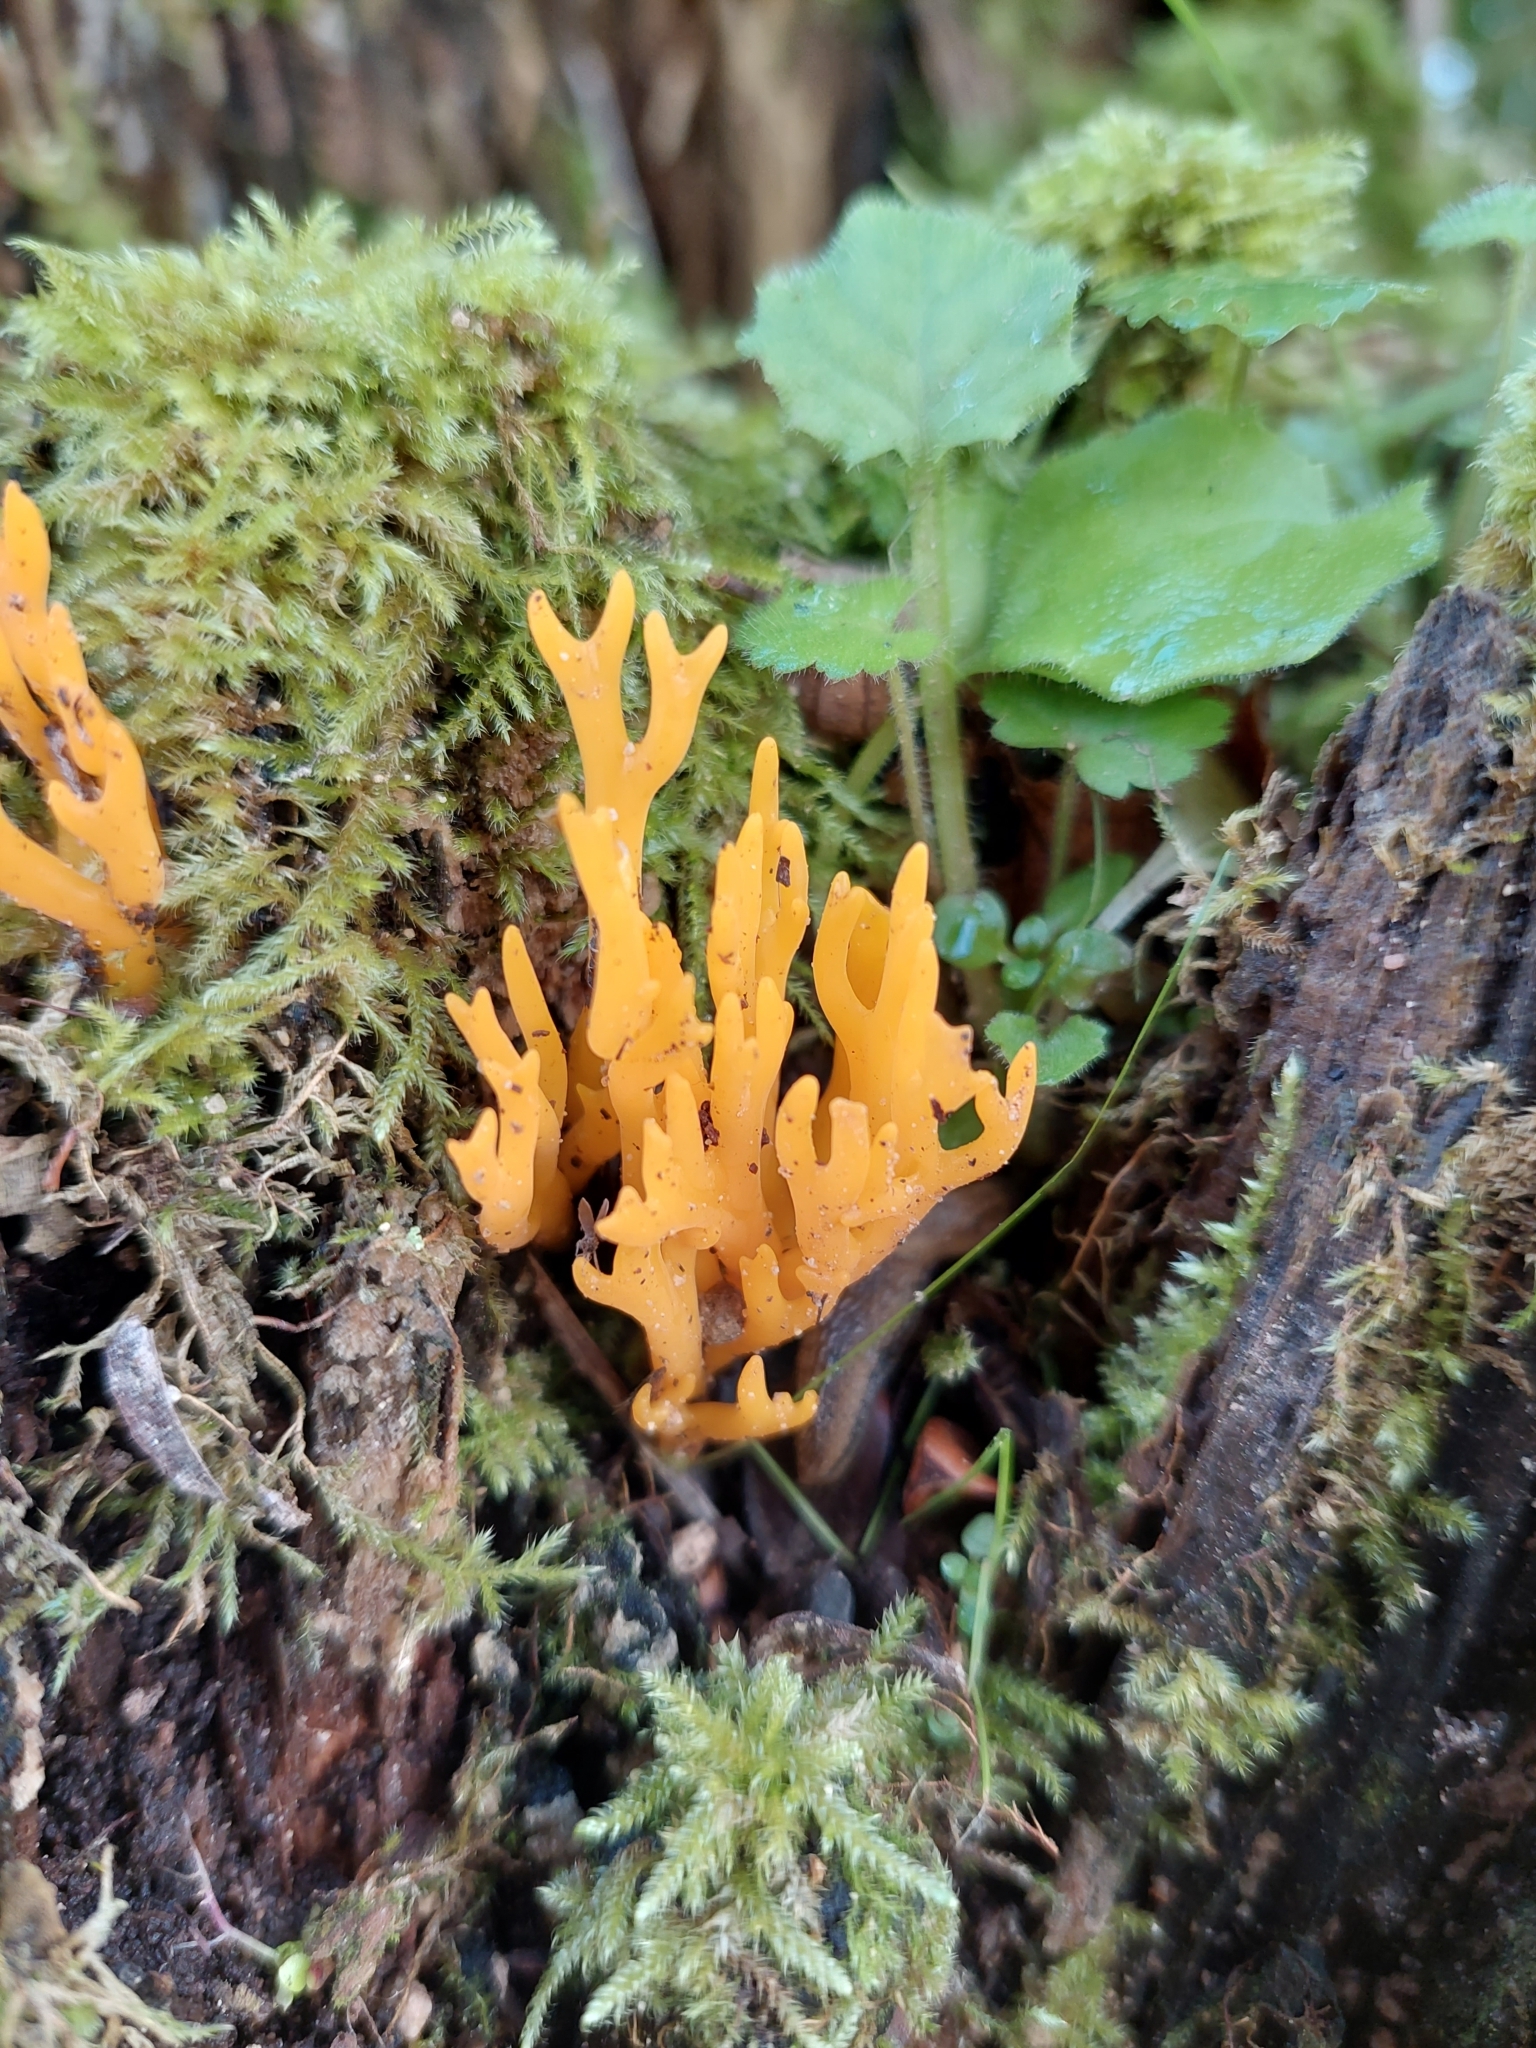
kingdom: Fungi
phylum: Basidiomycota
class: Dacrymycetes
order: Dacrymycetales
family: Dacrymycetaceae
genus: Calocera
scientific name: Calocera viscosa
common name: Yellow stagshorn
